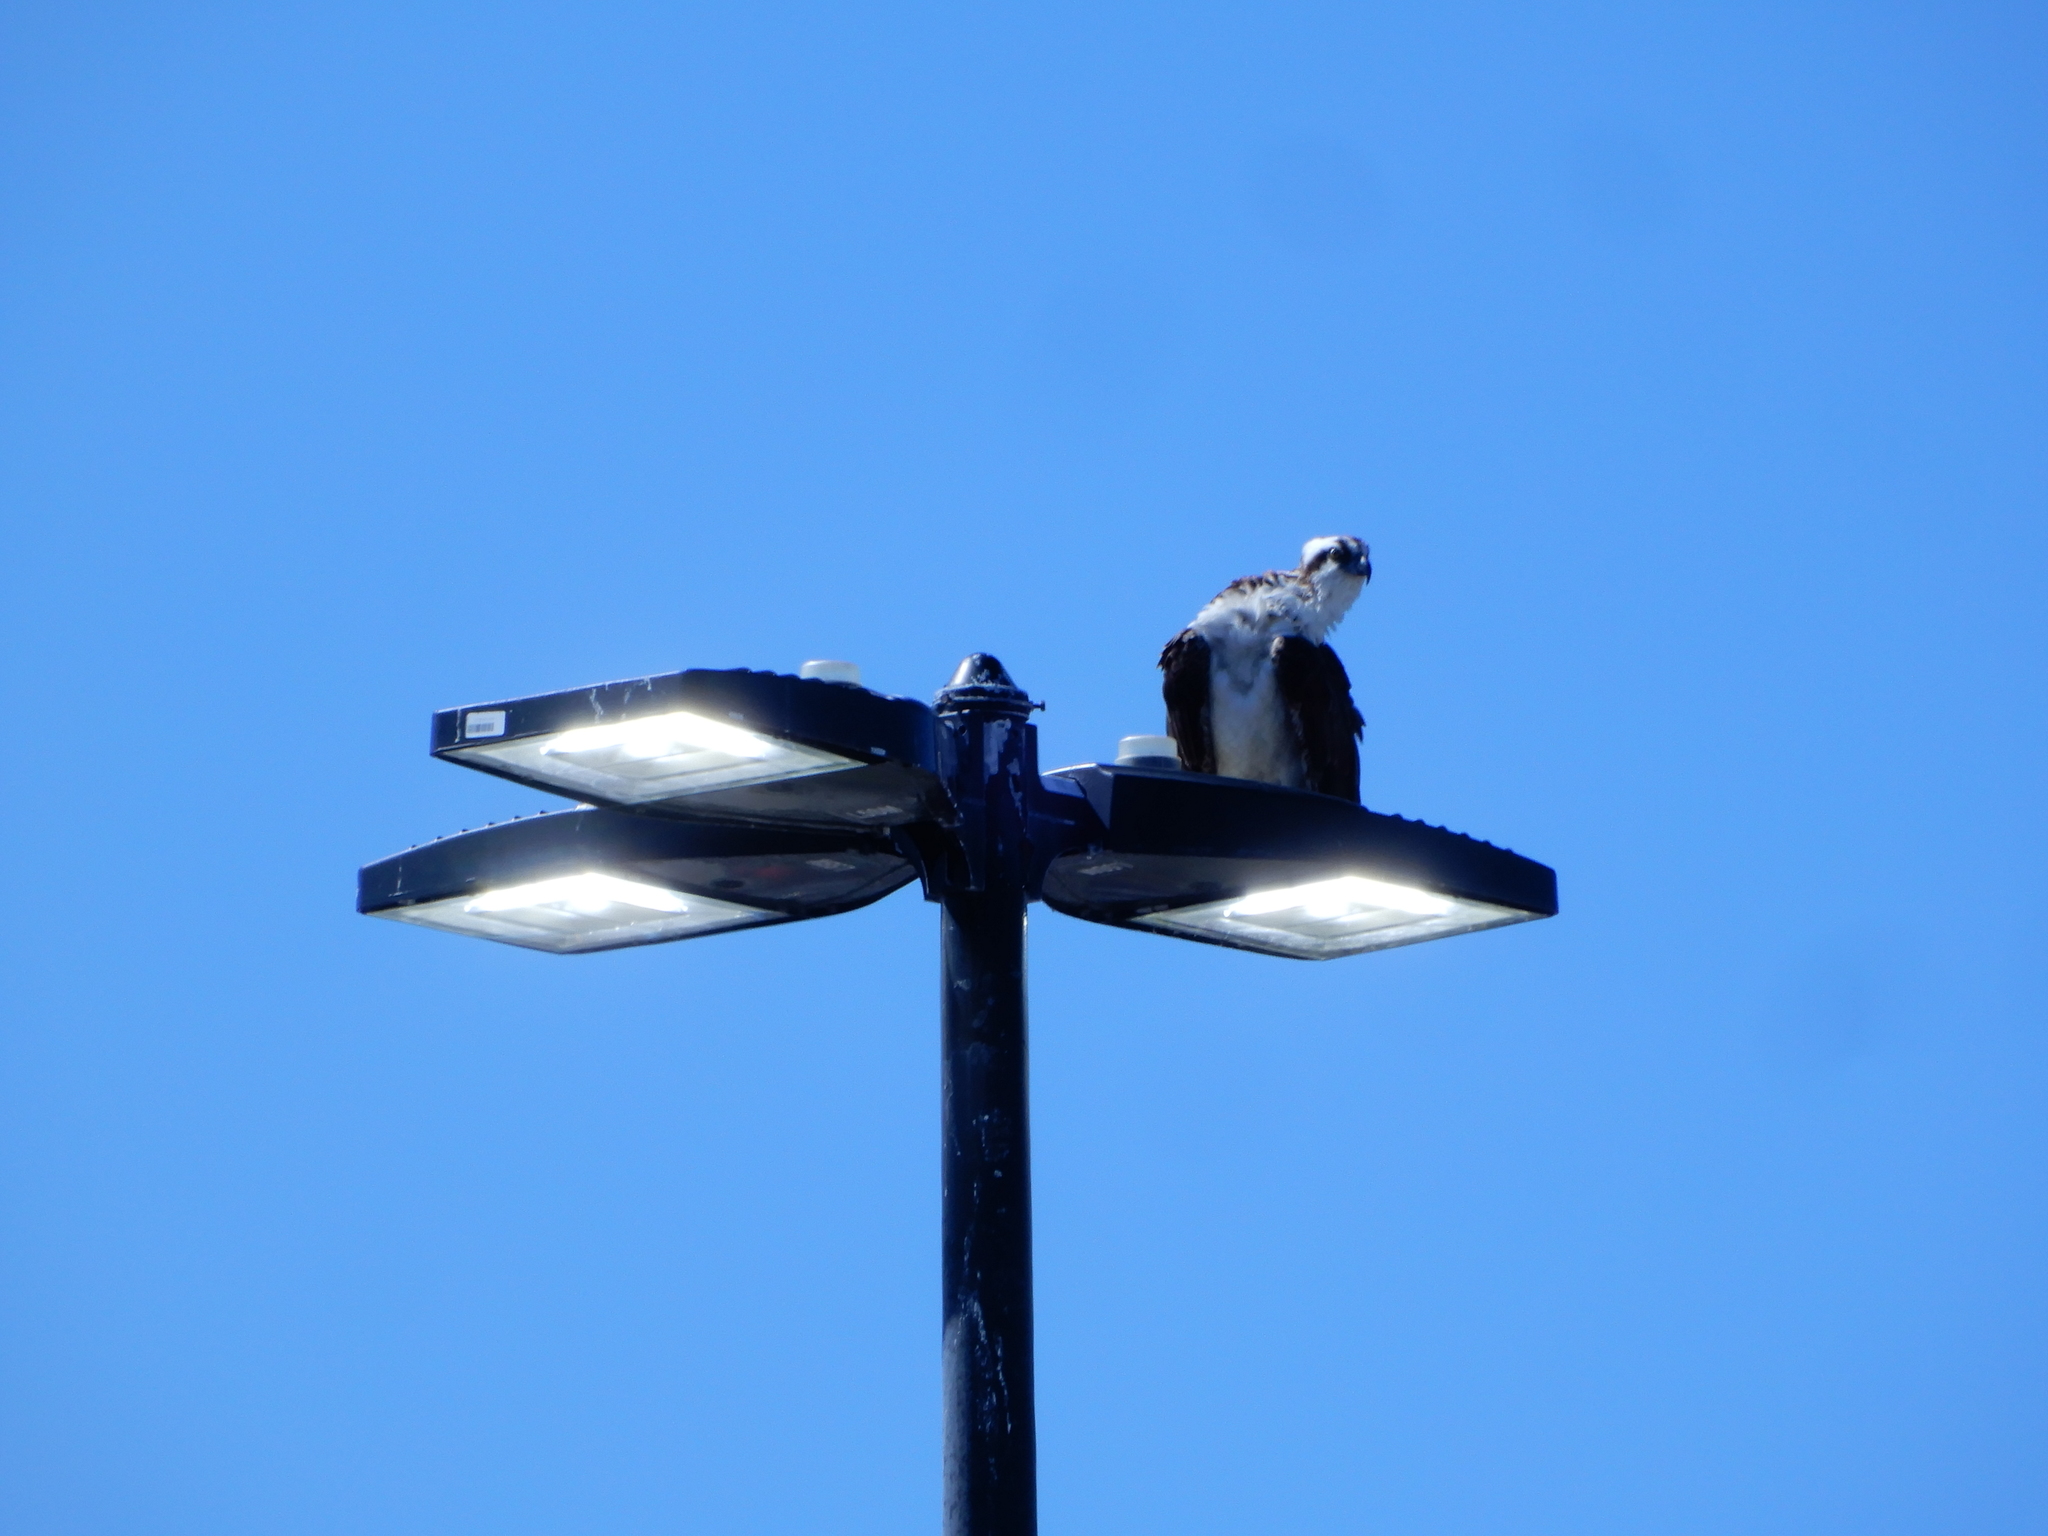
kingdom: Animalia
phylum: Chordata
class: Aves
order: Accipitriformes
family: Pandionidae
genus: Pandion
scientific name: Pandion haliaetus
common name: Osprey
